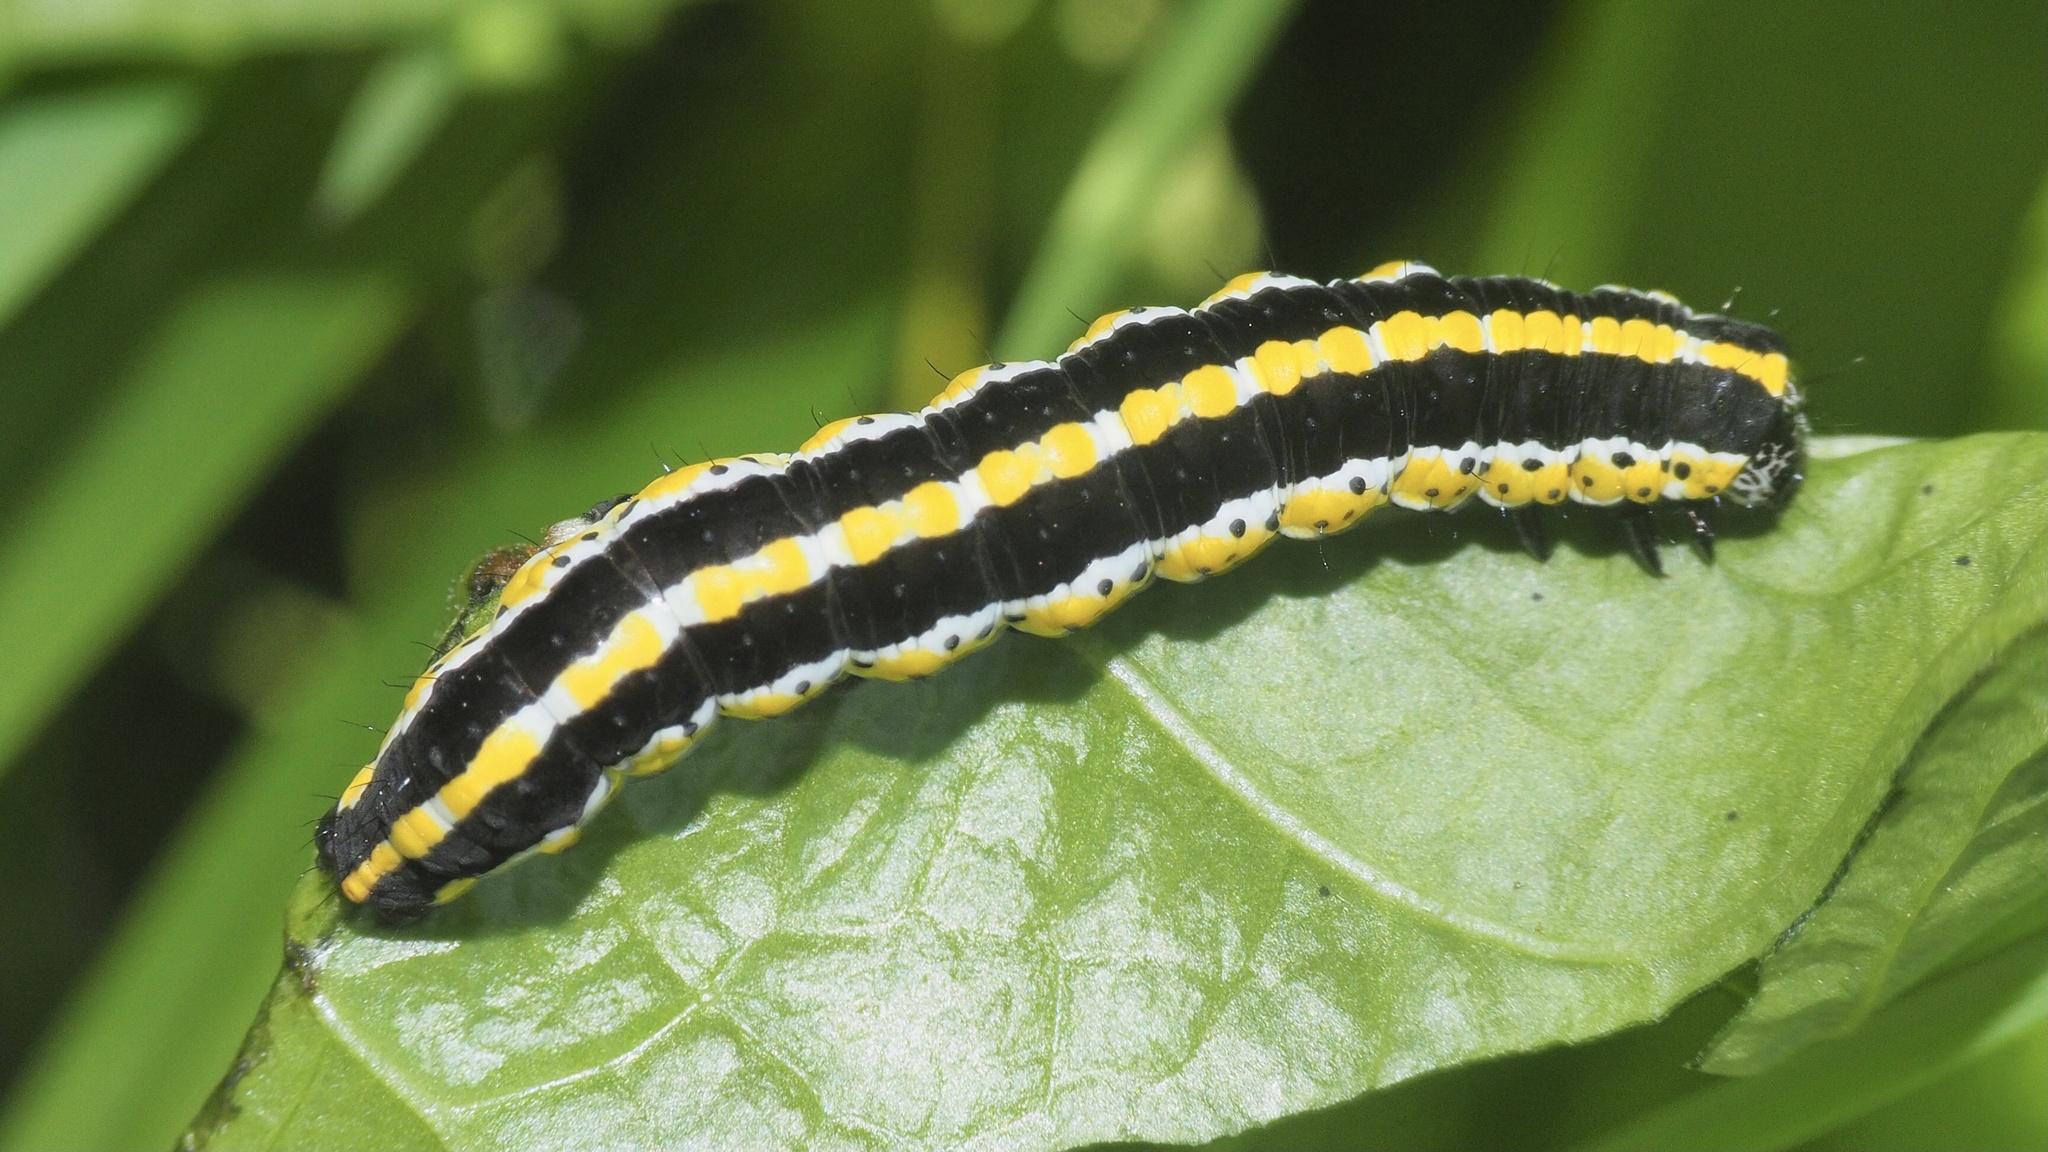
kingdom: Animalia
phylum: Arthropoda
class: Insecta
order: Lepidoptera
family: Noctuidae
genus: Cucullia
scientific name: Cucullia lucifuga
